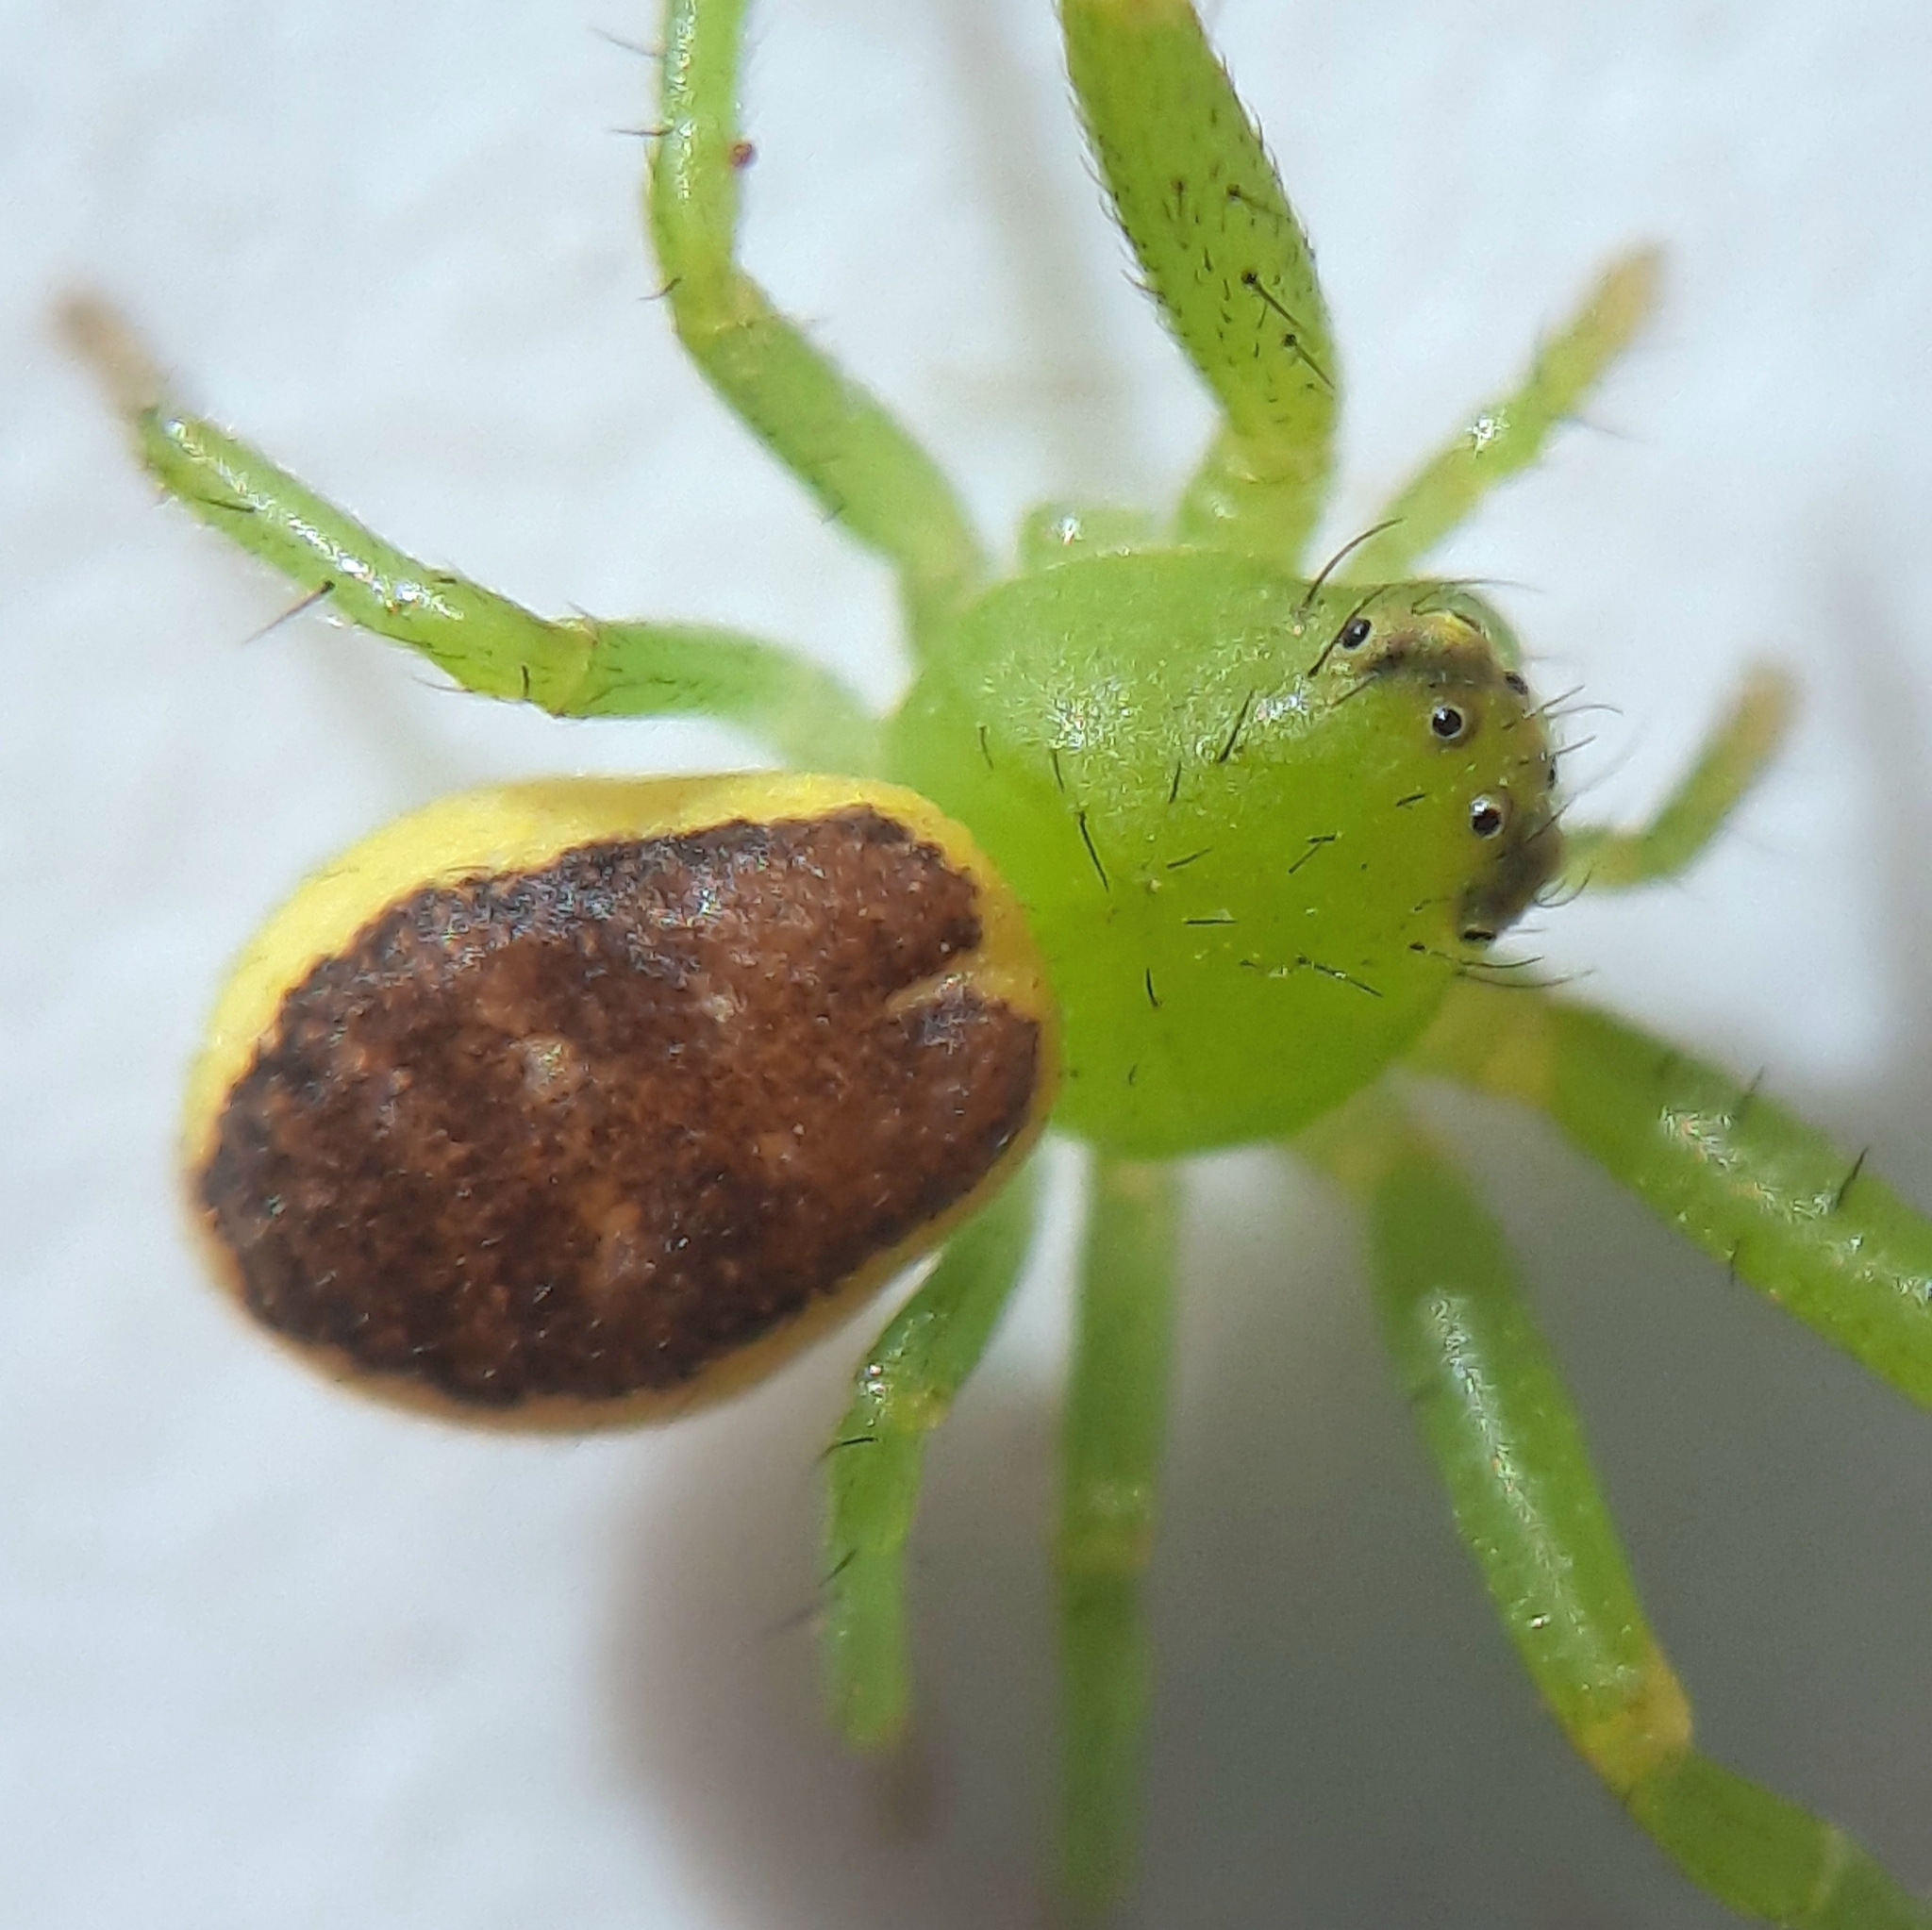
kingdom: Animalia
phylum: Arthropoda
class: Arachnida
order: Araneae
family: Thomisidae
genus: Diaea
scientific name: Diaea dorsata
